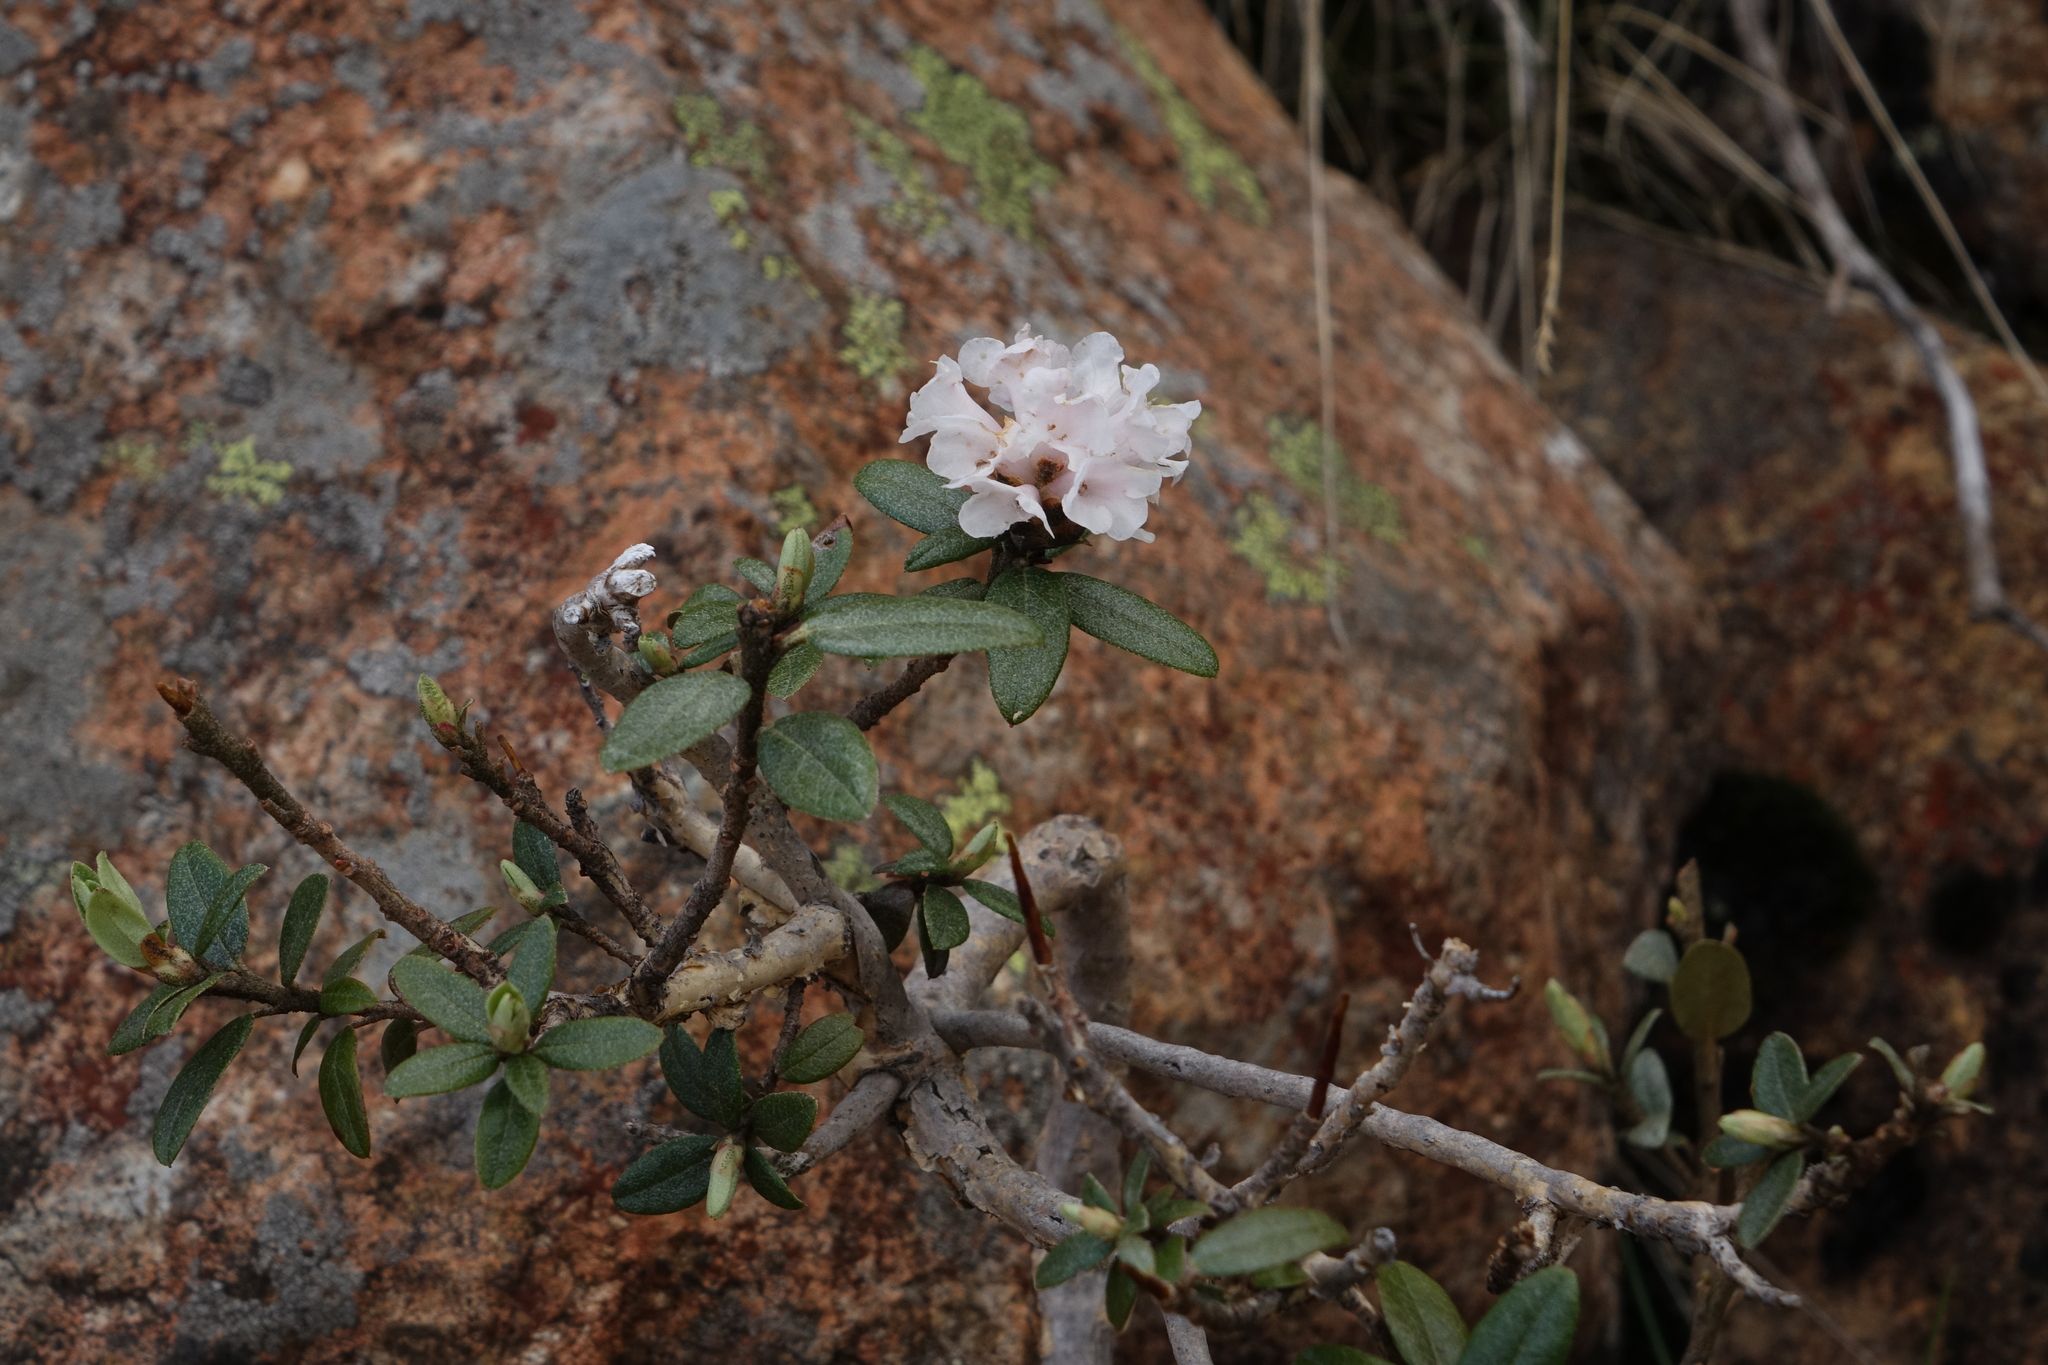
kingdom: Plantae
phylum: Tracheophyta
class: Magnoliopsida
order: Ericales
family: Ericaceae
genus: Rhododendron
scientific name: Rhododendron adamsii
